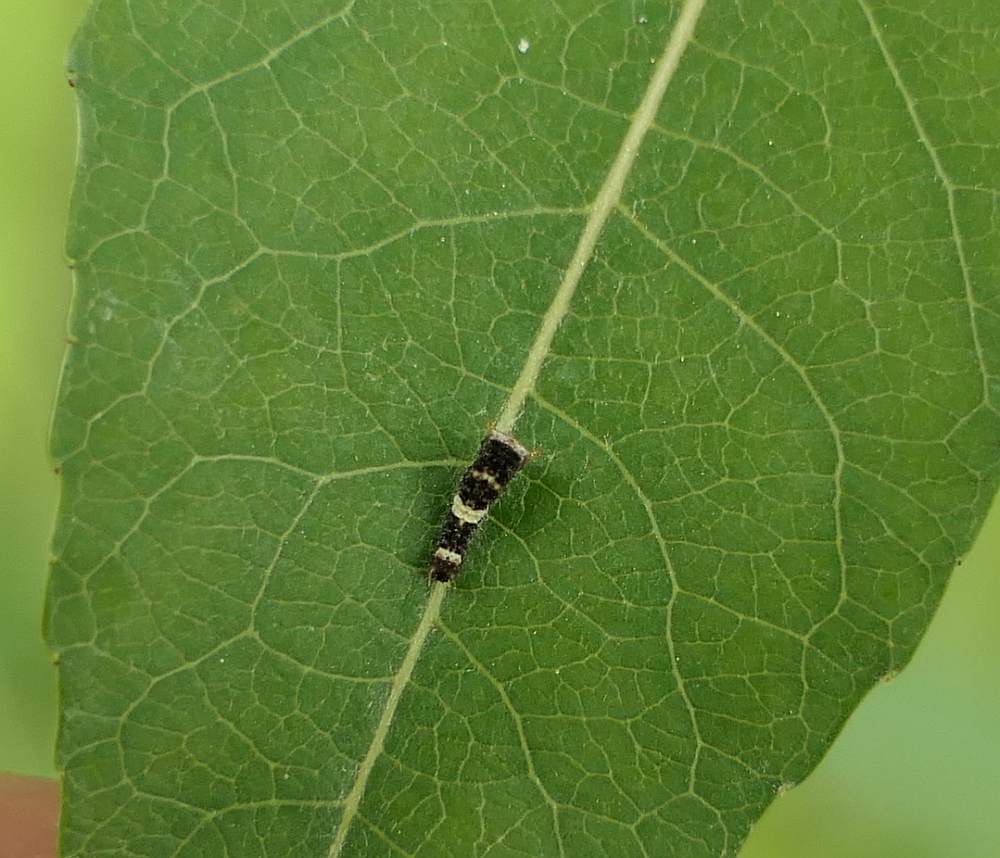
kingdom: Animalia
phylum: Arthropoda
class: Insecta
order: Lepidoptera
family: Papilionidae
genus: Papilio
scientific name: Papilio canadensis
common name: Canadian tiger swallowtail
